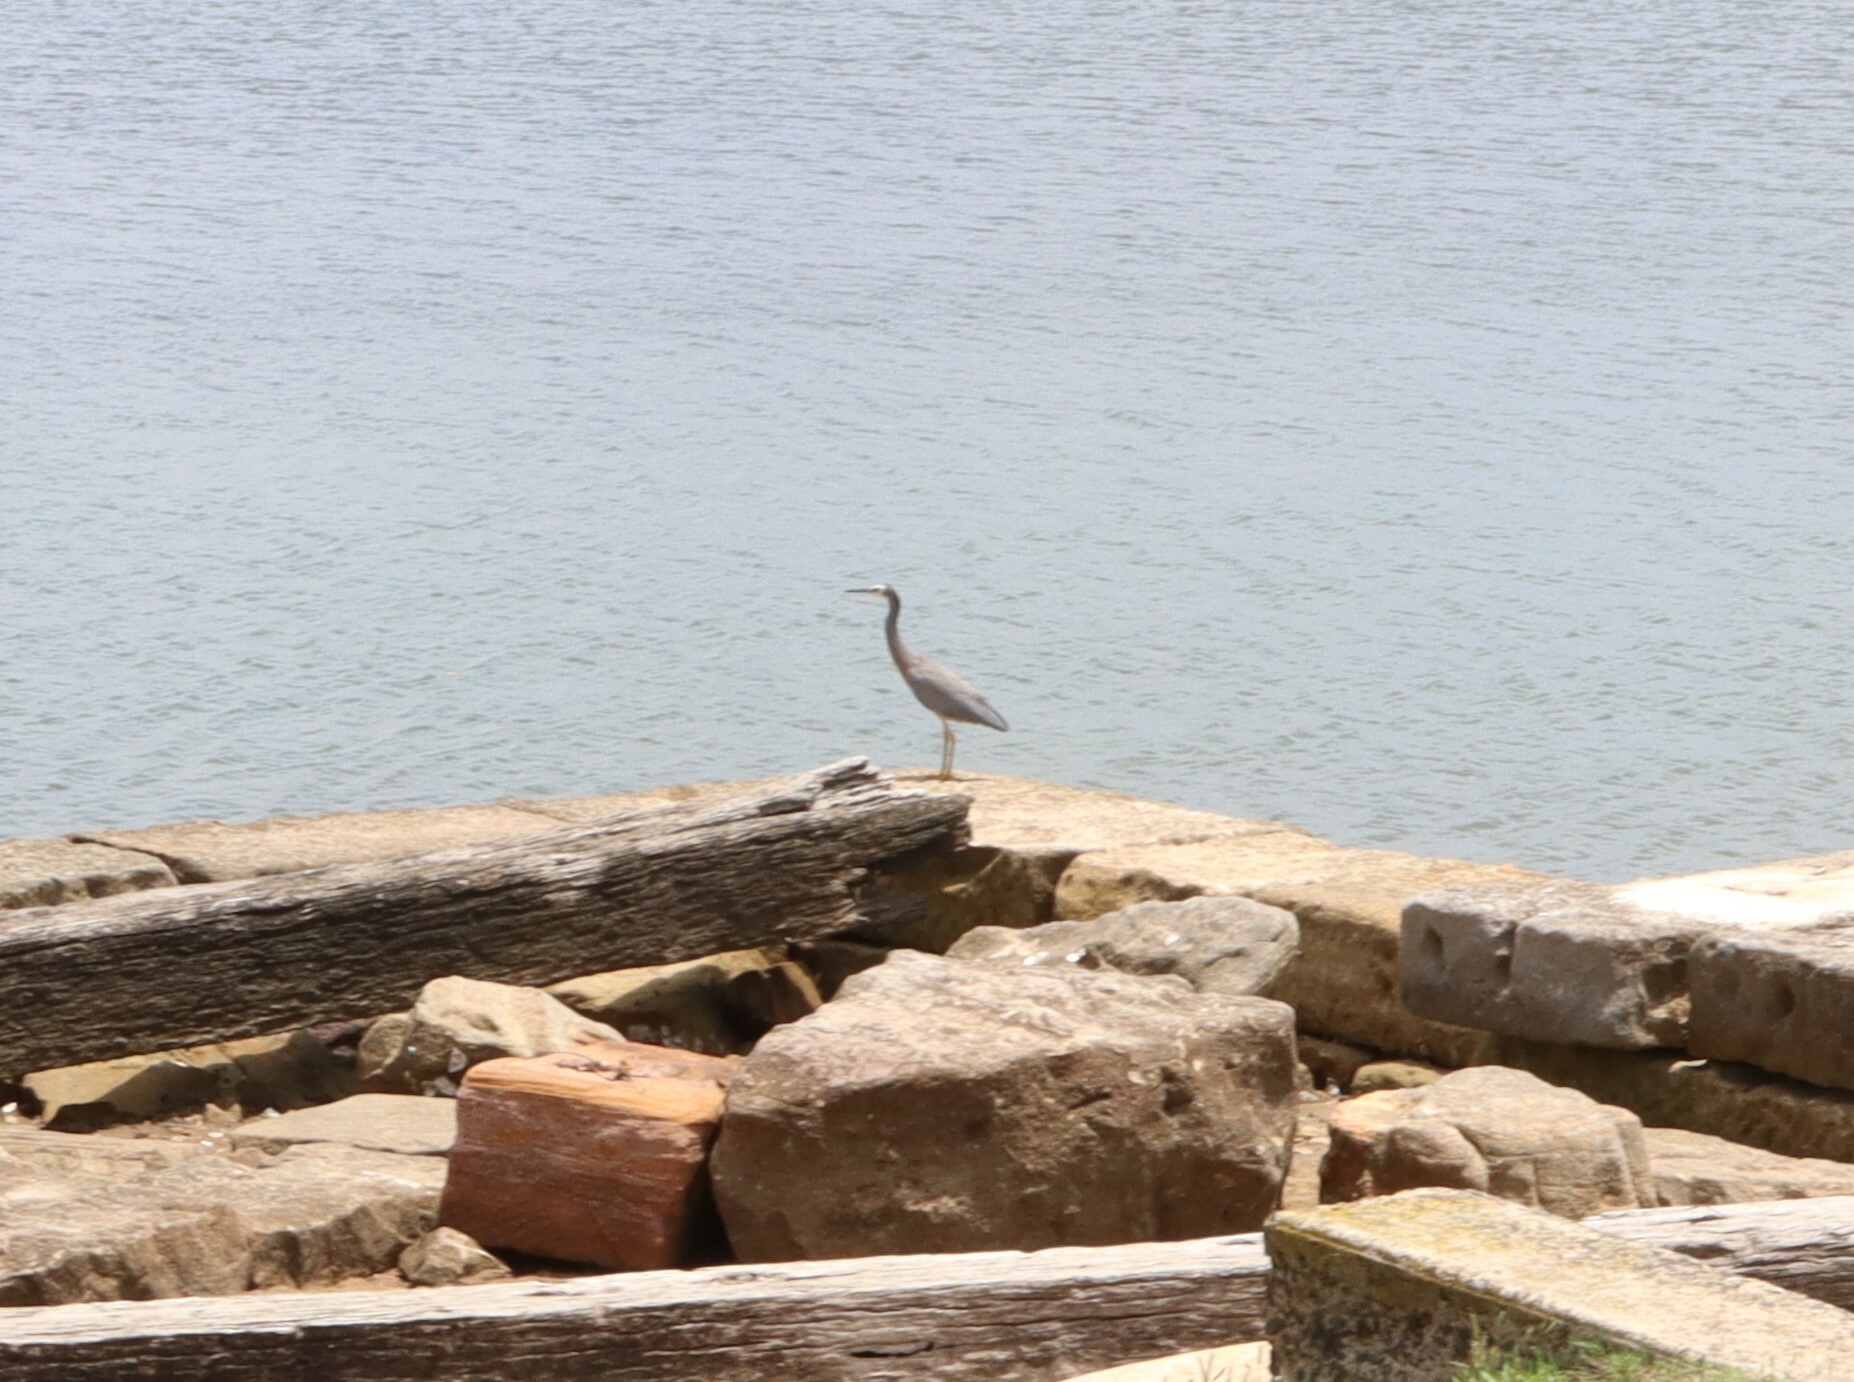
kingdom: Animalia
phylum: Chordata
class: Aves
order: Pelecaniformes
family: Ardeidae
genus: Egretta
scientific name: Egretta novaehollandiae
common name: White-faced heron
